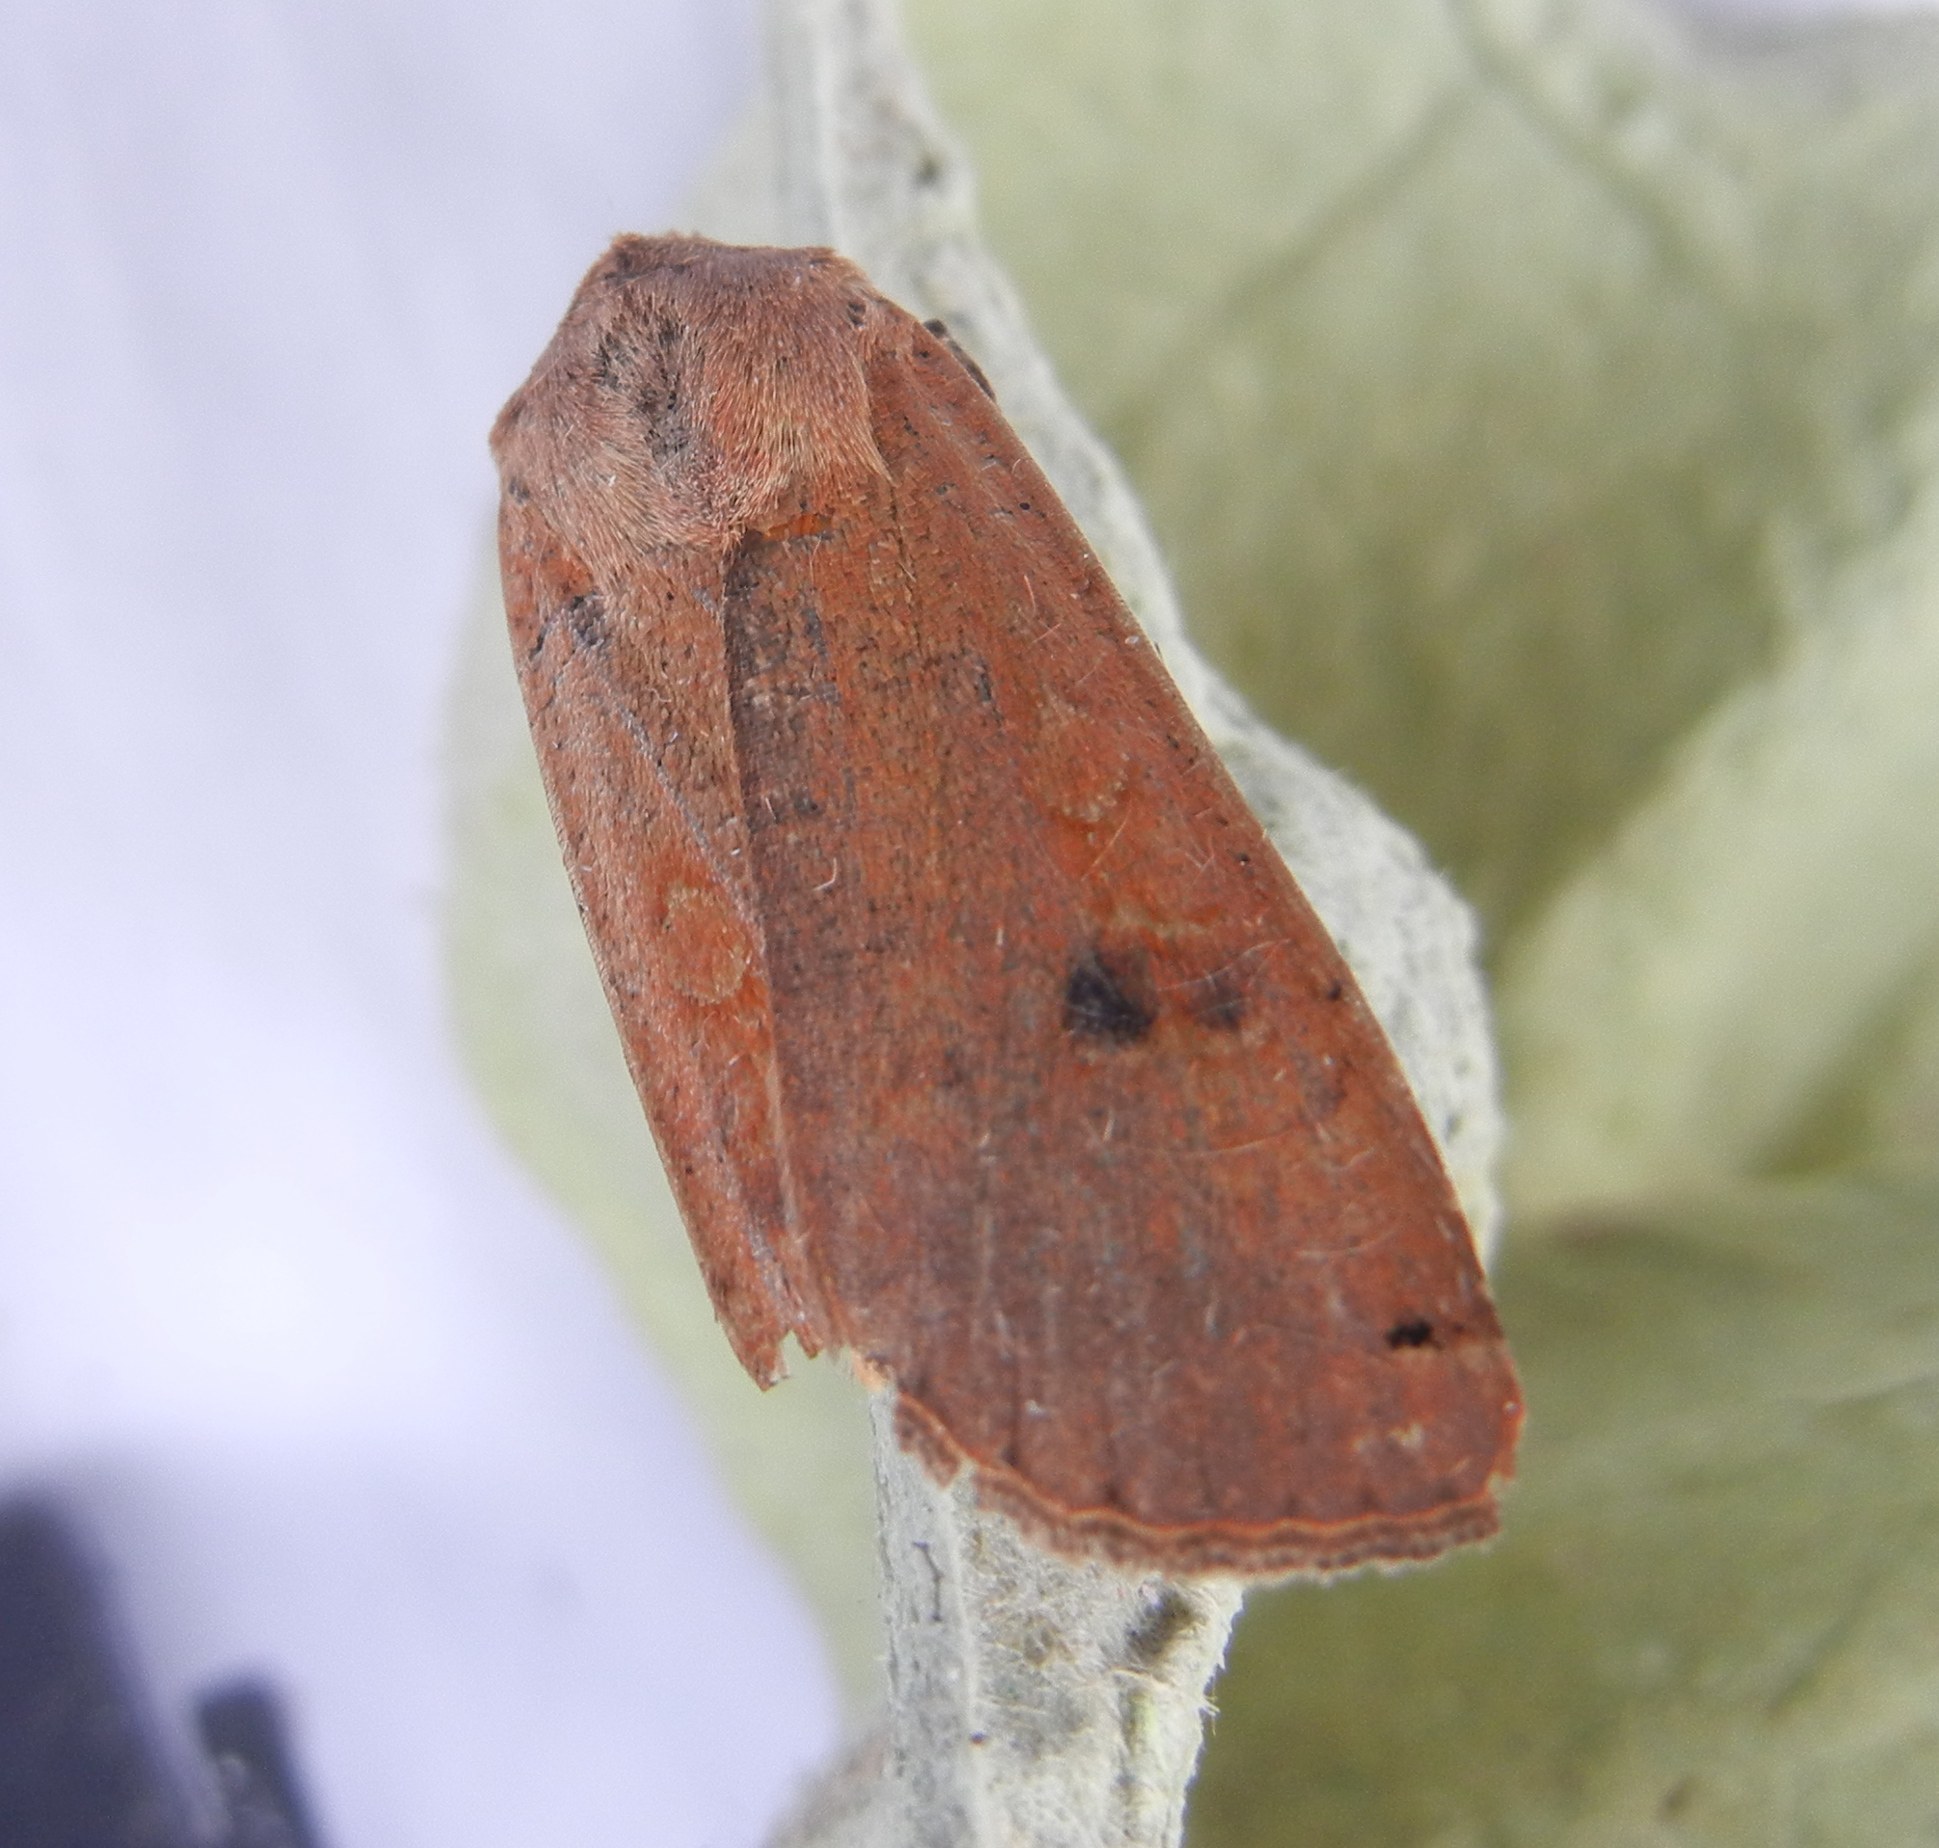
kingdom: Animalia
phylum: Arthropoda
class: Insecta
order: Lepidoptera
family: Noctuidae
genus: Noctua
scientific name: Noctua pronuba
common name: Large yellow underwing
